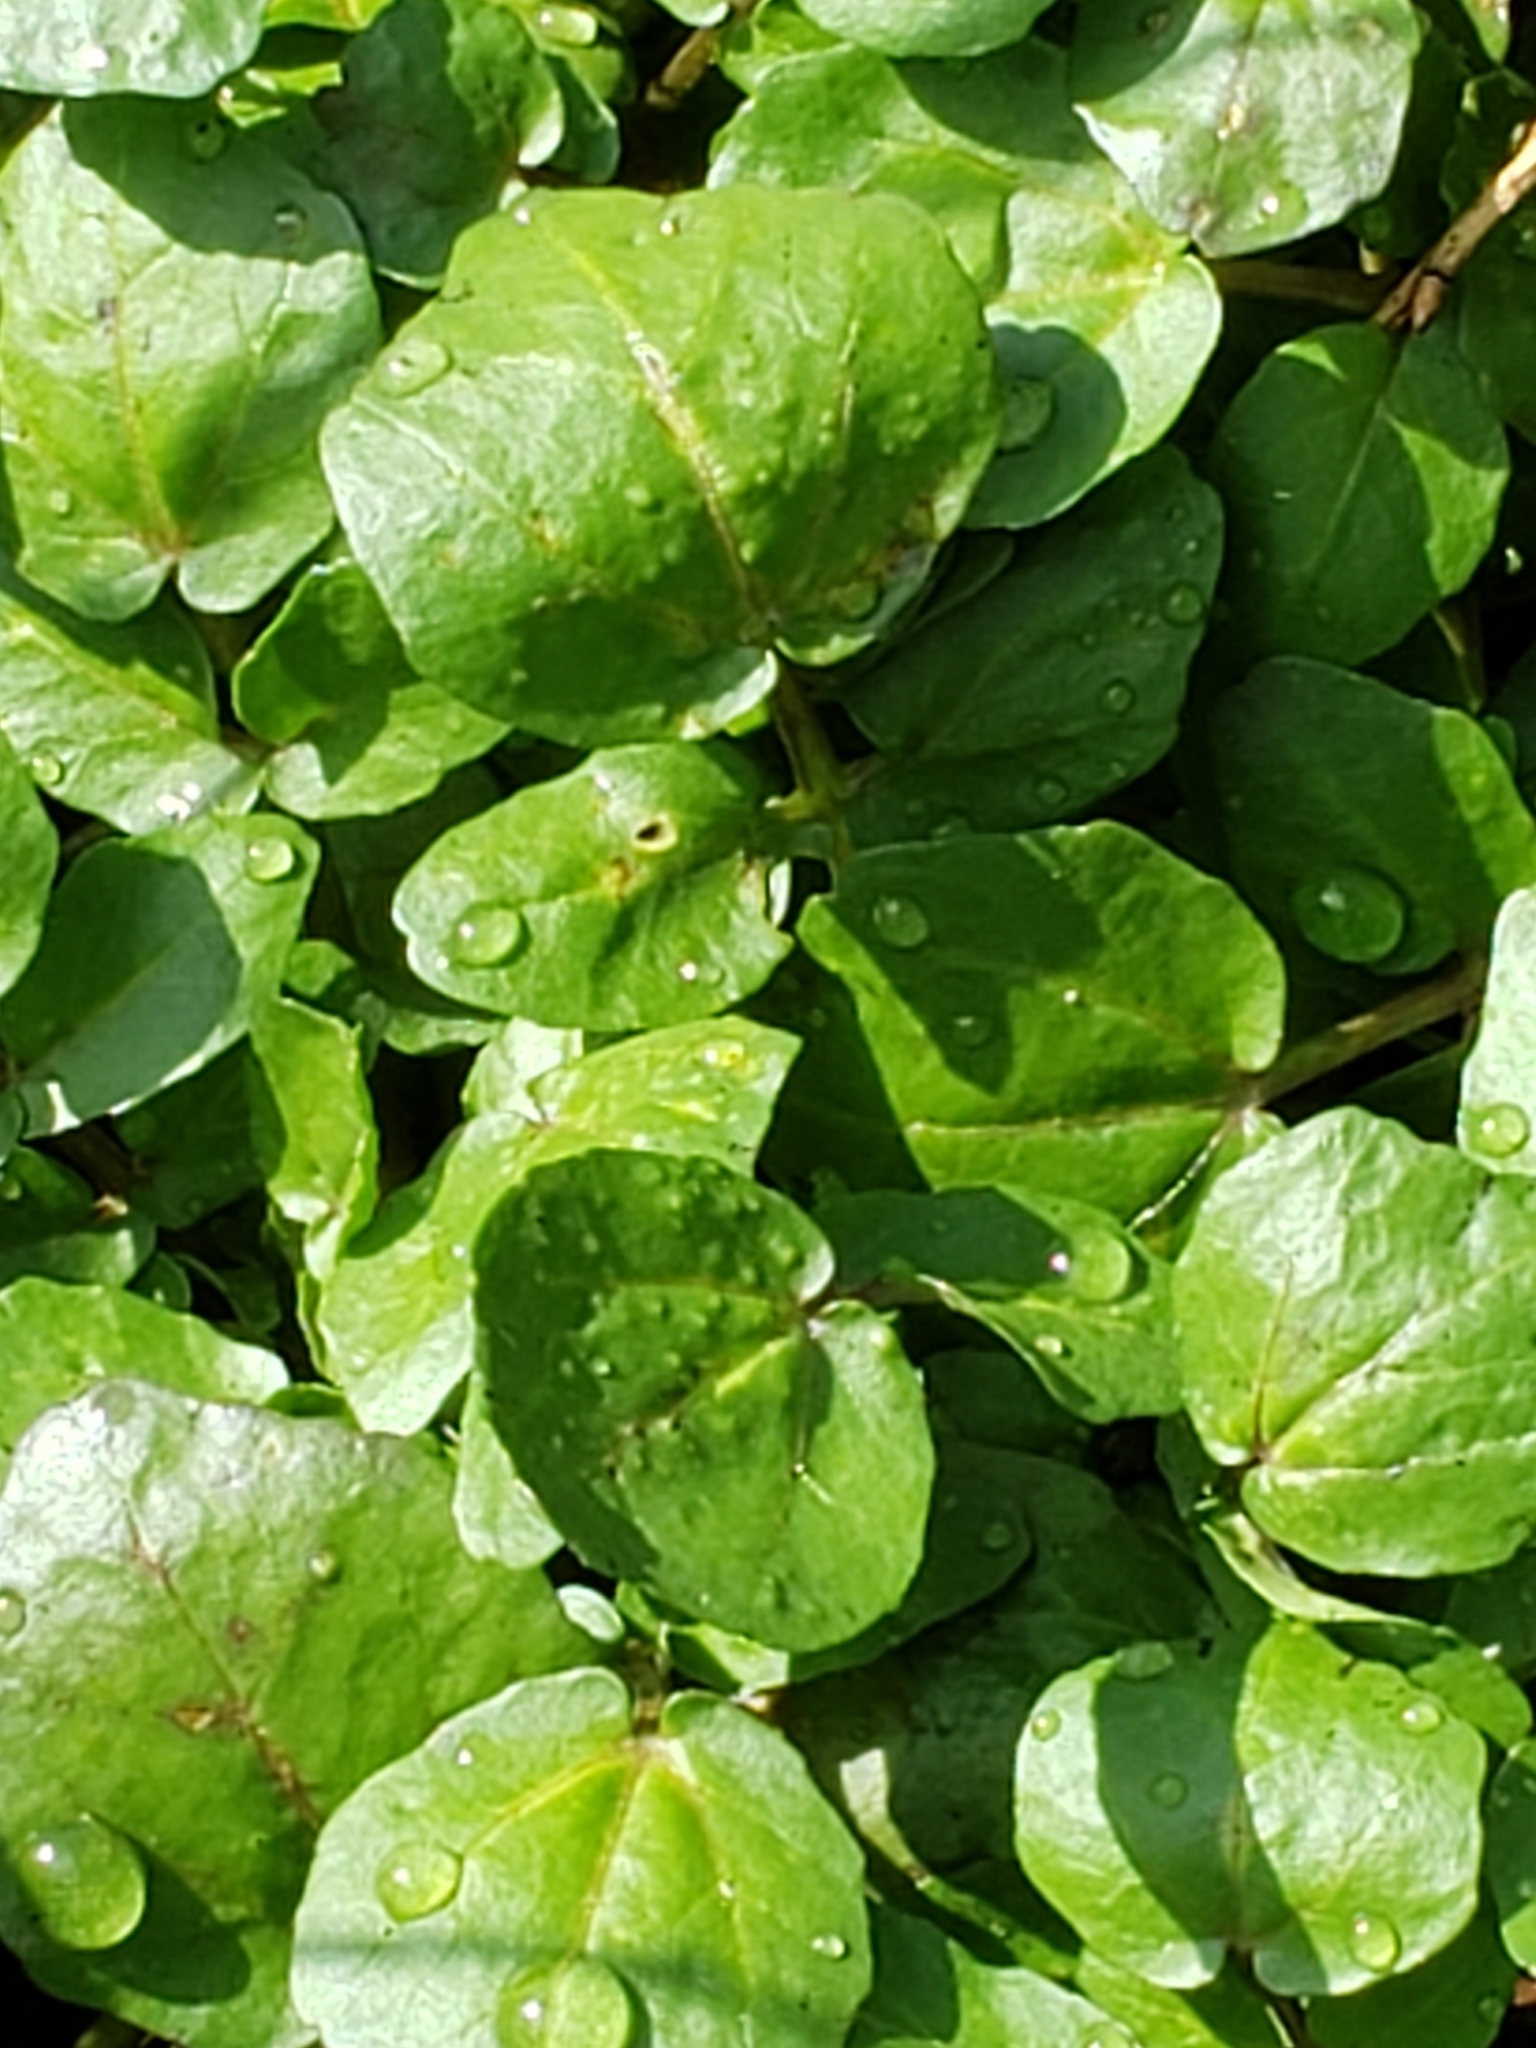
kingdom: Plantae
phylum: Tracheophyta
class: Magnoliopsida
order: Brassicales
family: Brassicaceae
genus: Nasturtium
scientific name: Nasturtium officinale
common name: Watercress
